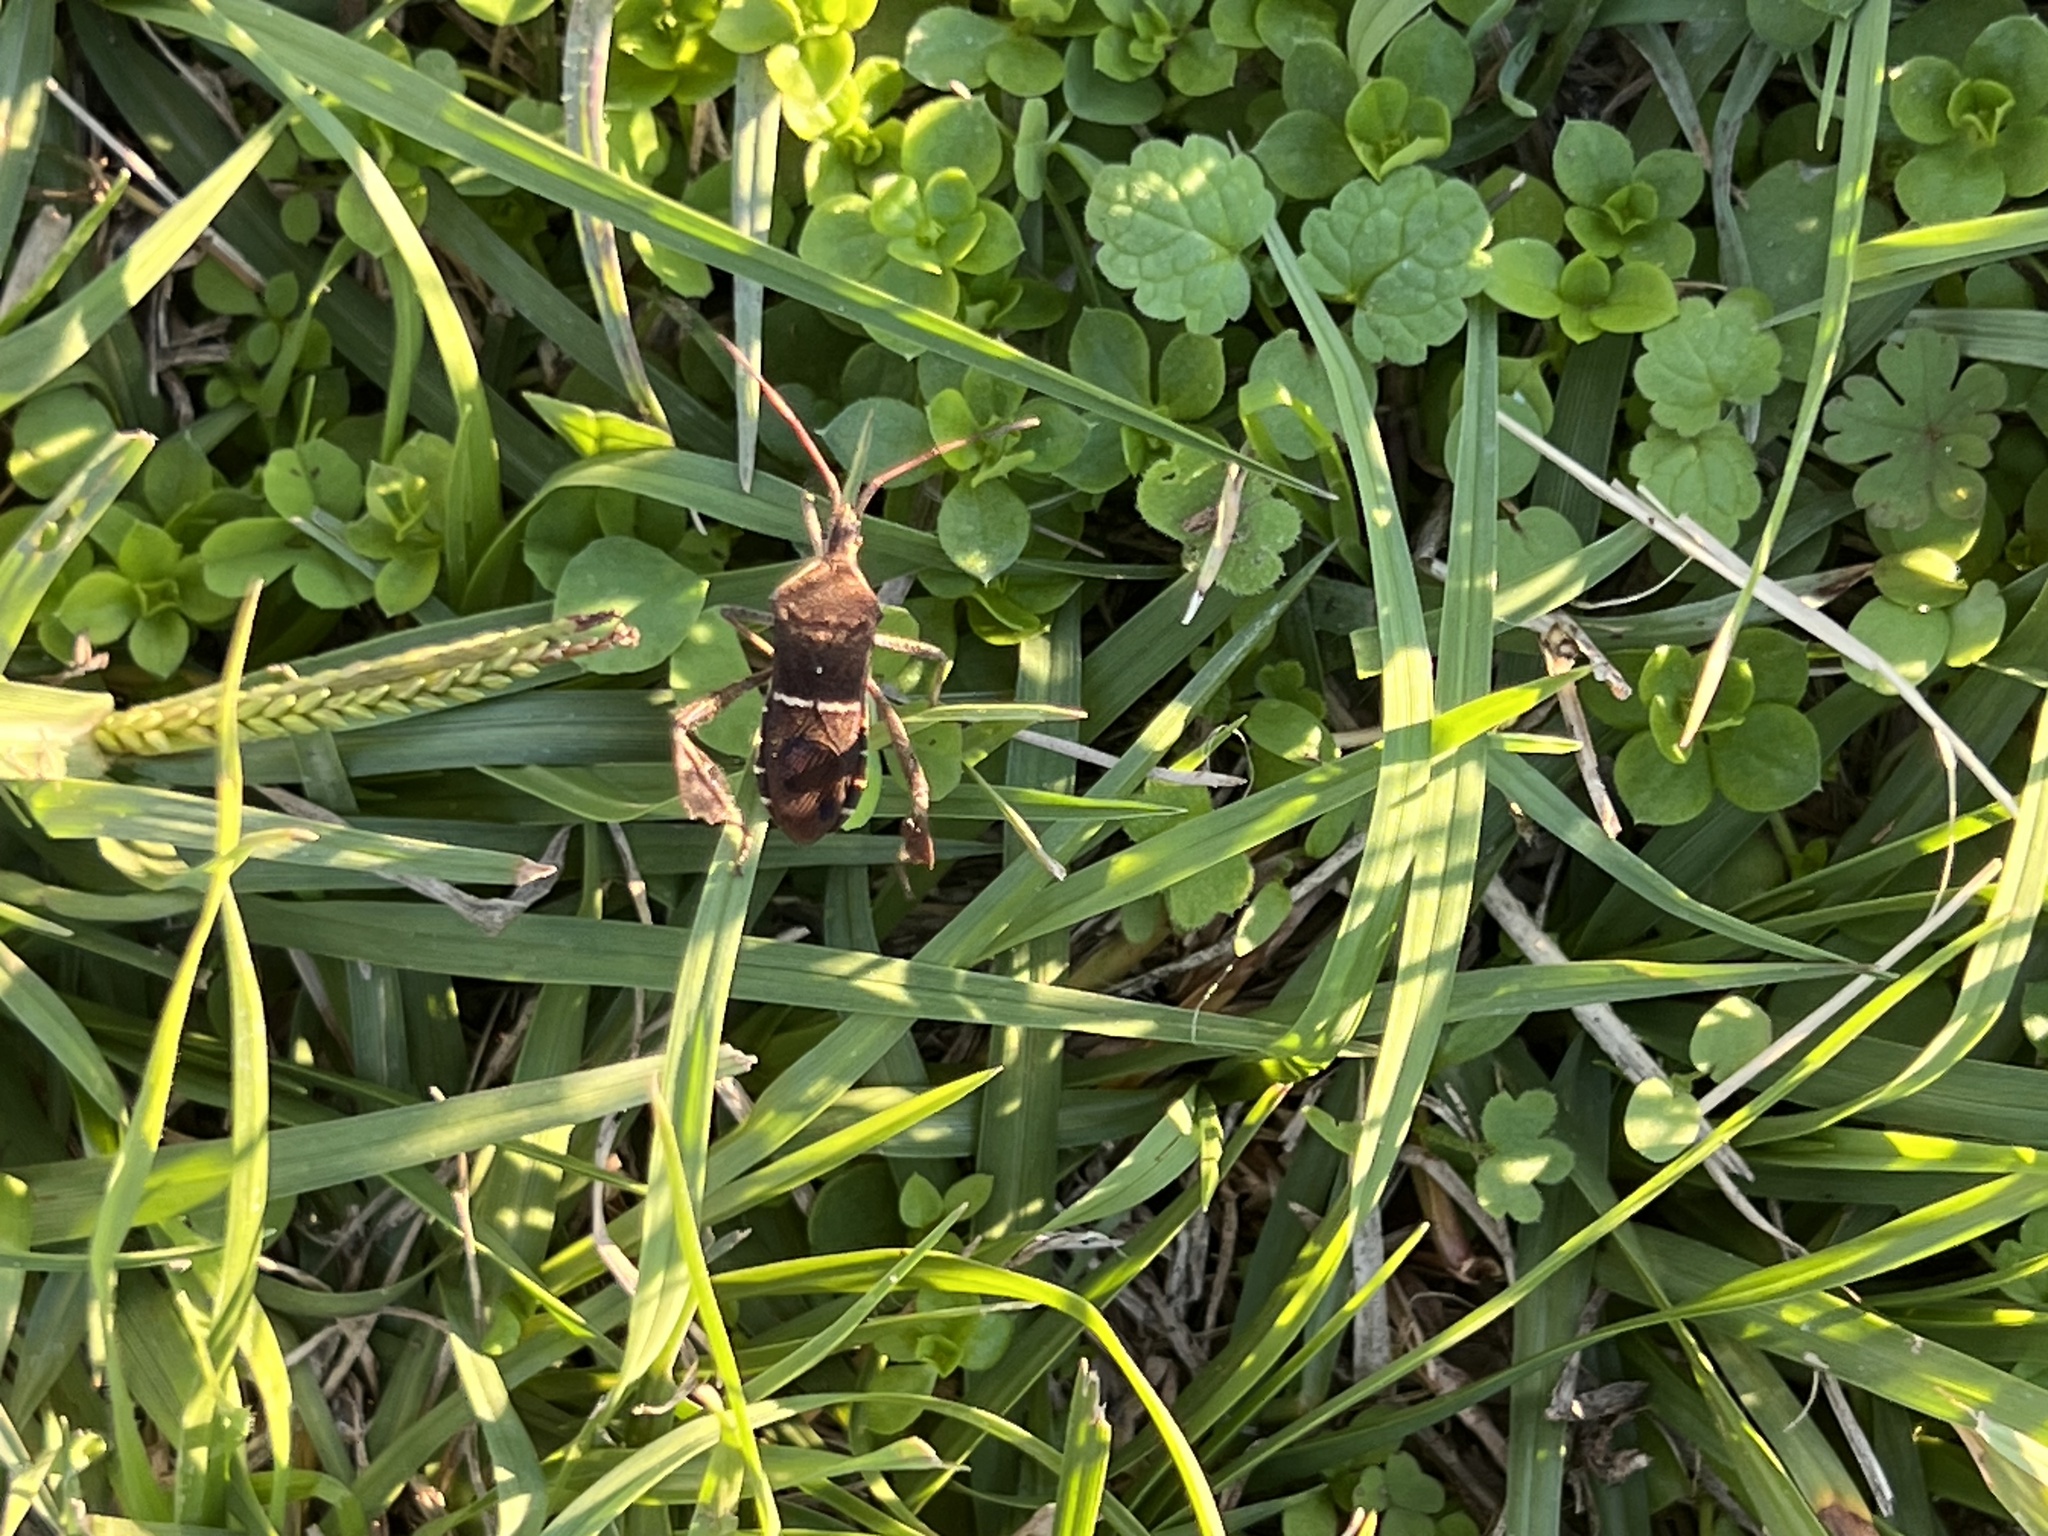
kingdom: Animalia
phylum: Arthropoda
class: Insecta
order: Hemiptera
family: Coreidae
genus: Leptoglossus
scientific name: Leptoglossus phyllopus
